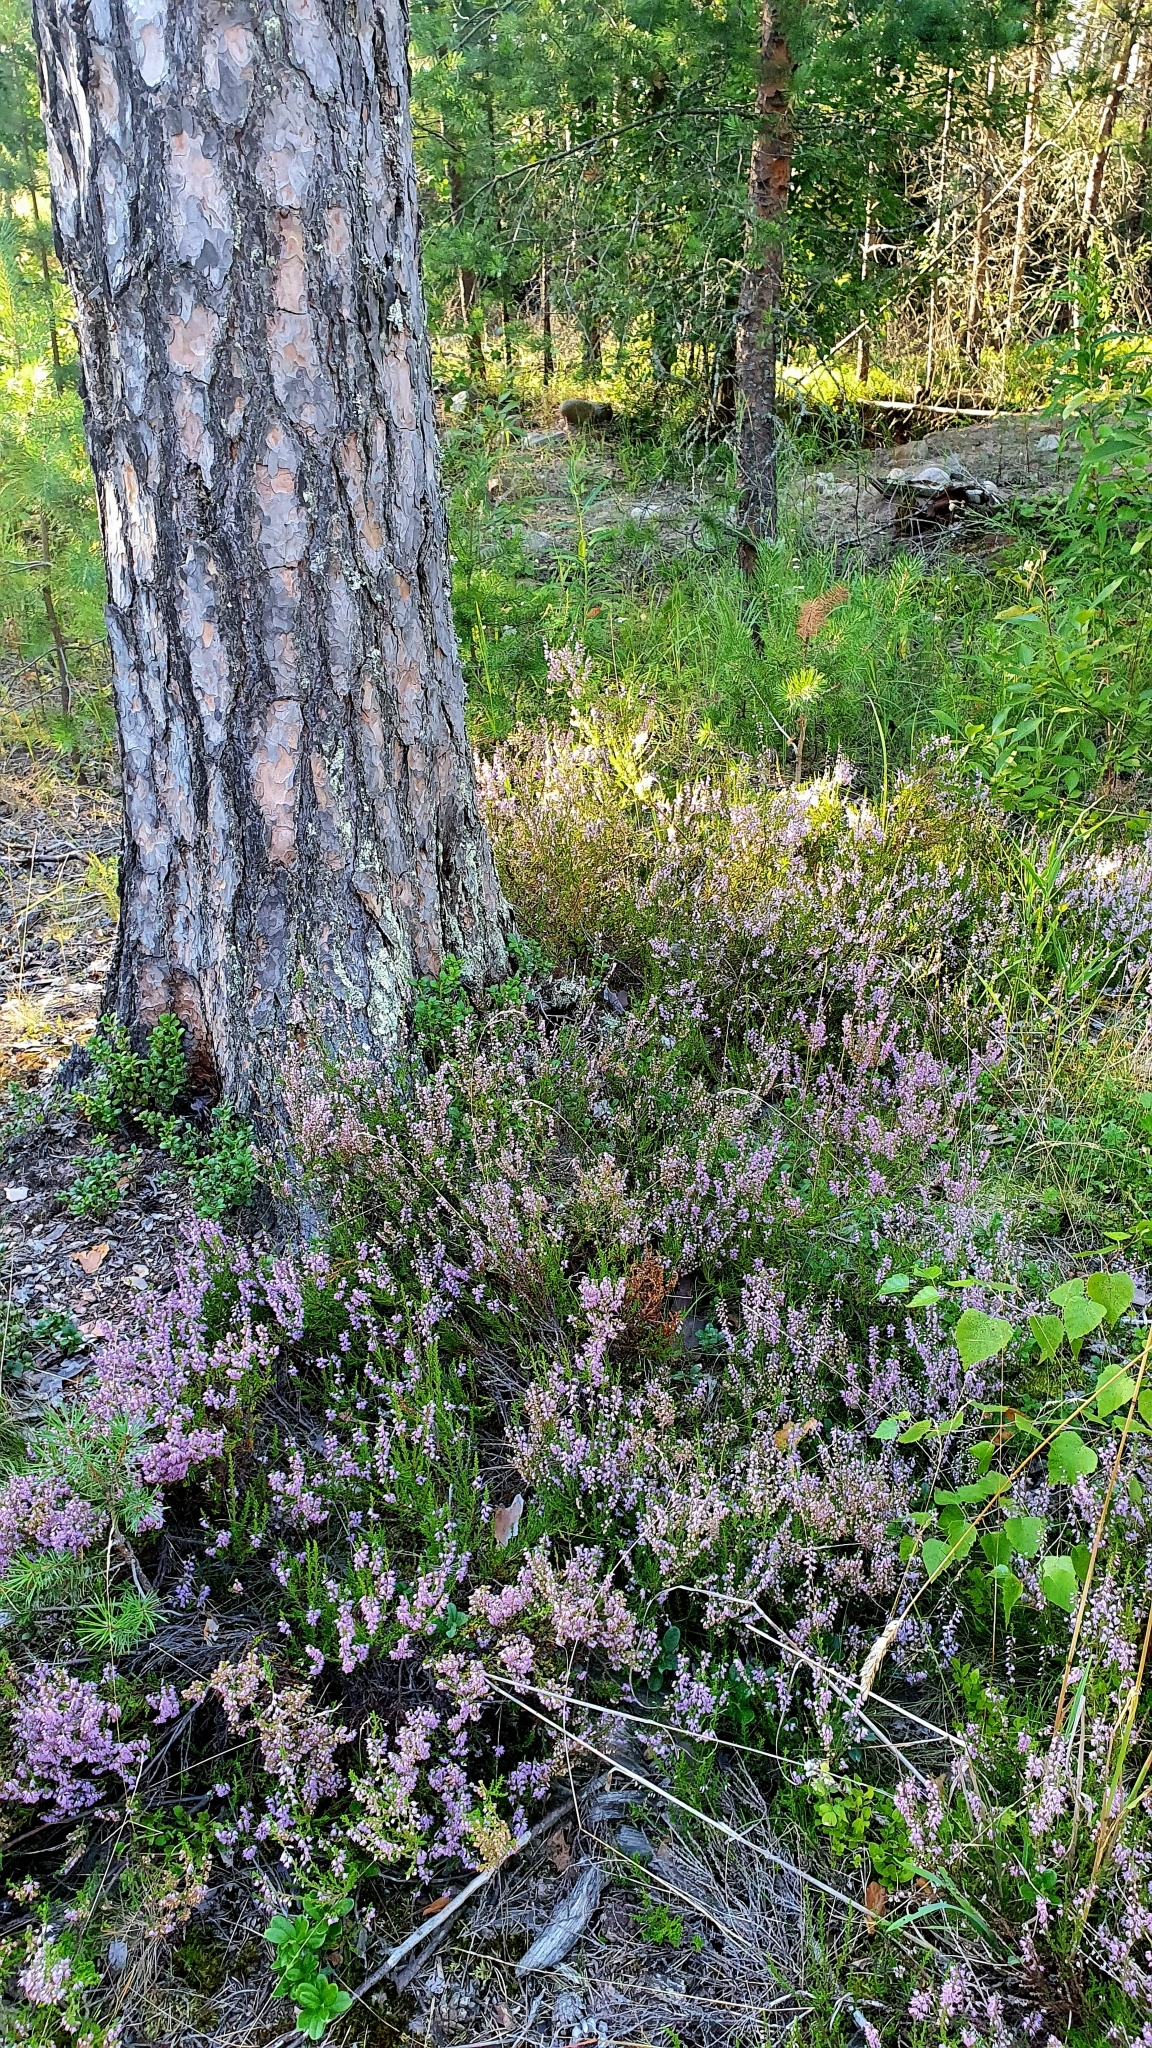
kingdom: Plantae
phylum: Tracheophyta
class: Magnoliopsida
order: Ericales
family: Ericaceae
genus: Calluna
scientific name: Calluna vulgaris
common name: Heather
